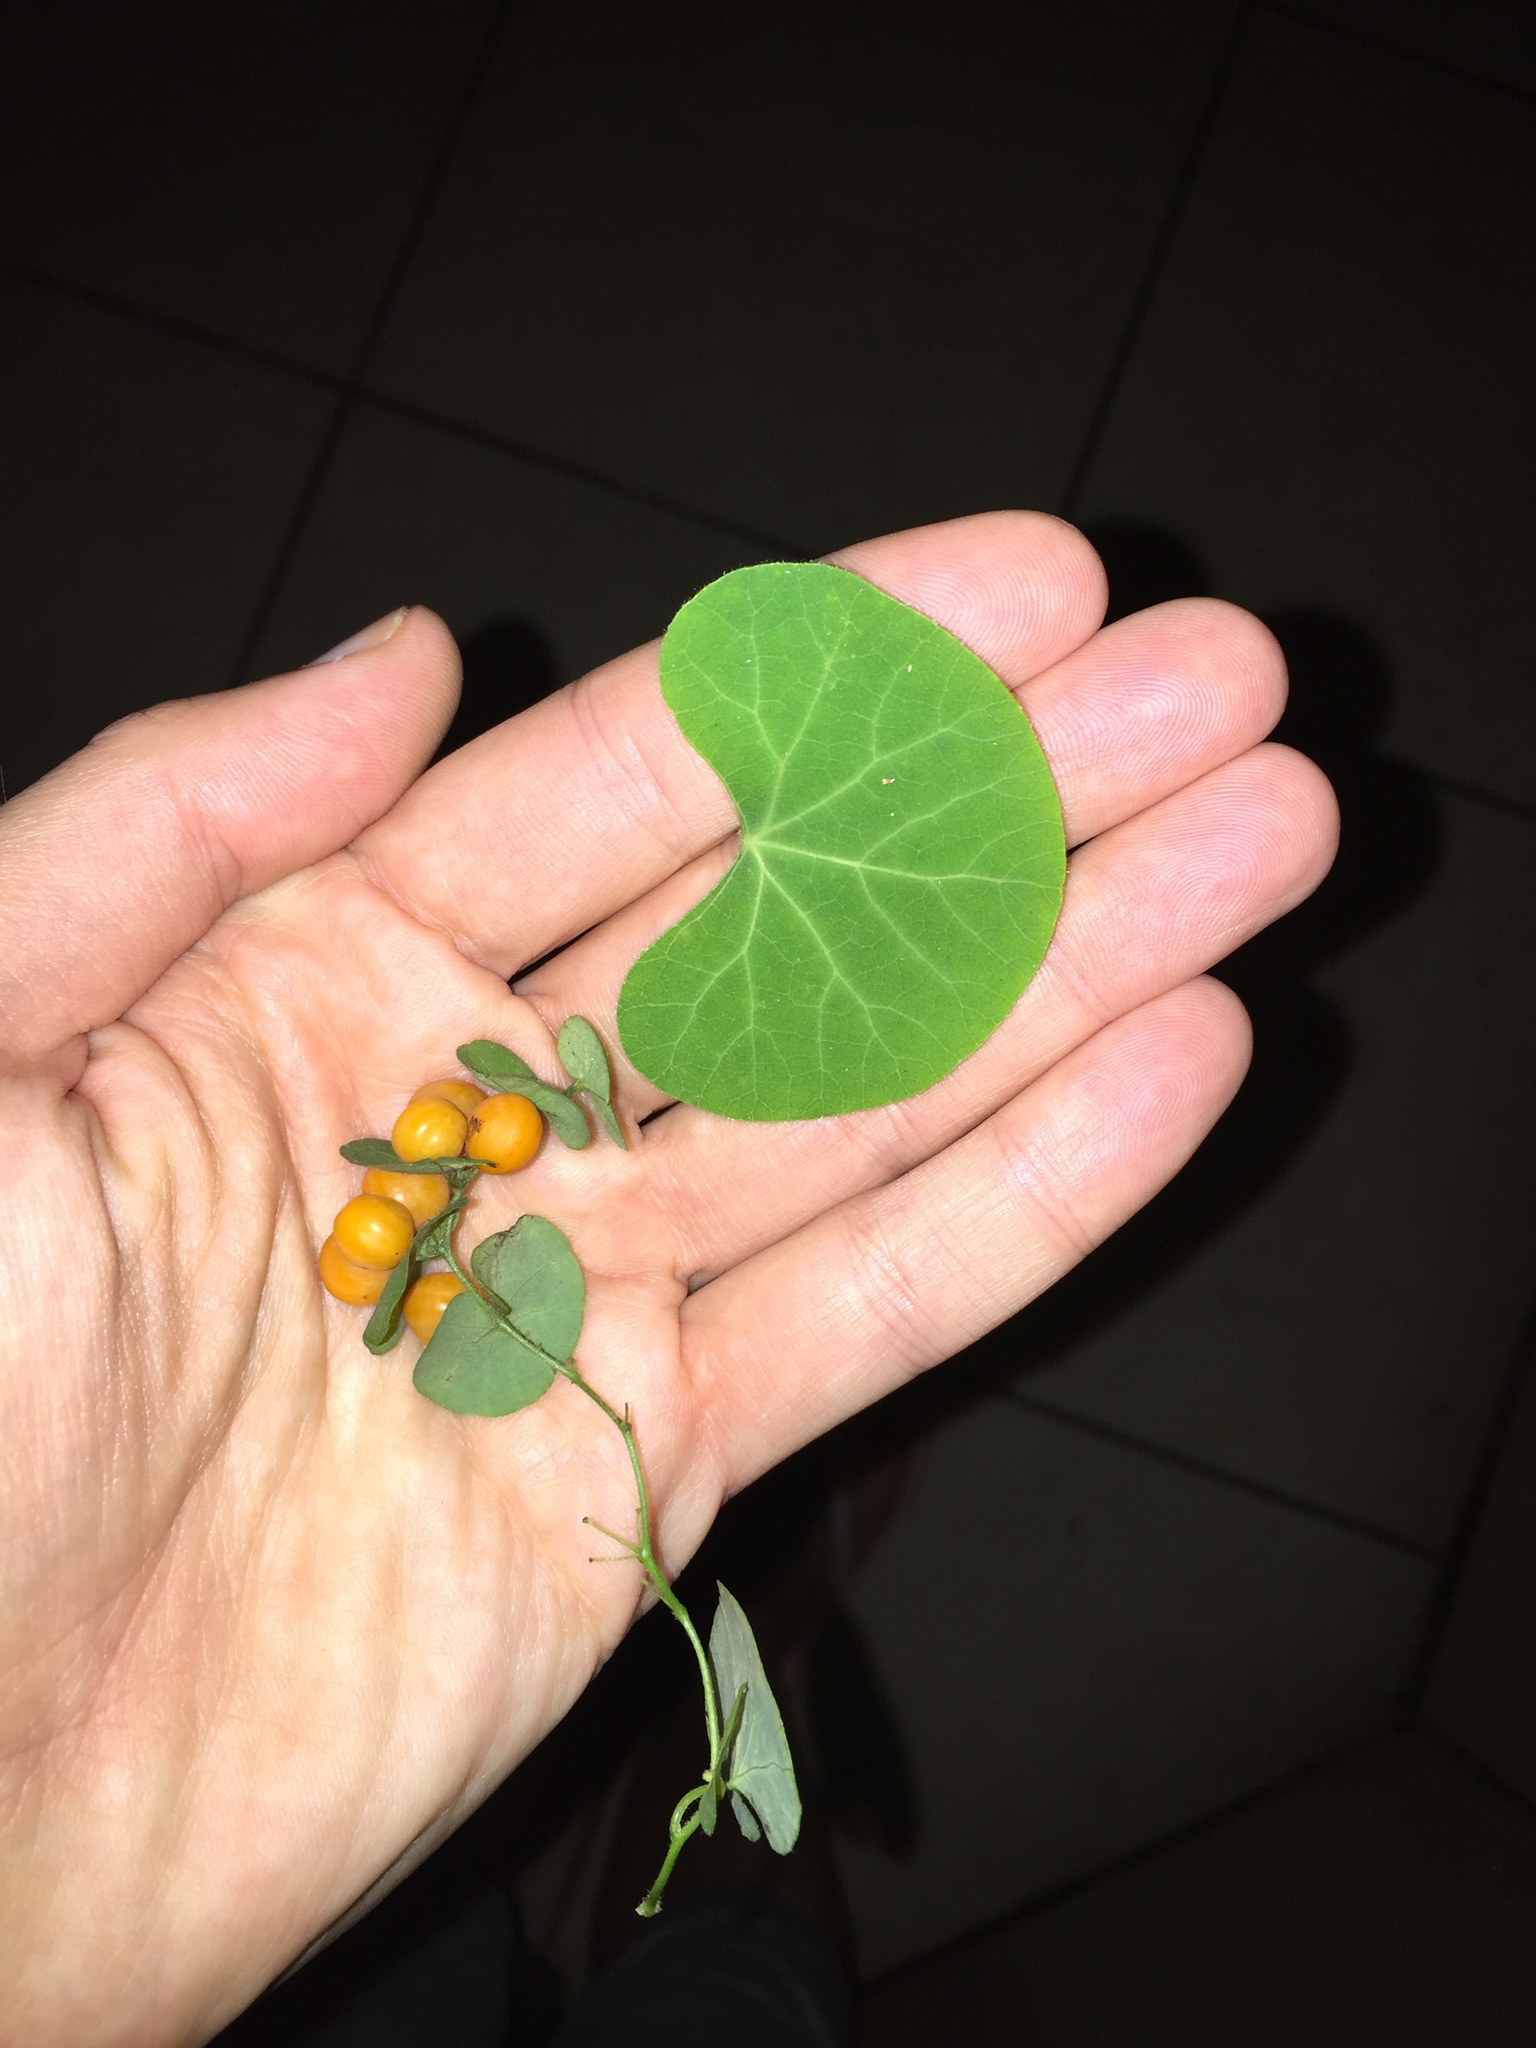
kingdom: Plantae
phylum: Tracheophyta
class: Magnoliopsida
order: Ranunculales
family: Menispermaceae
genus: Cissampelos
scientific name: Cissampelos torulosa
